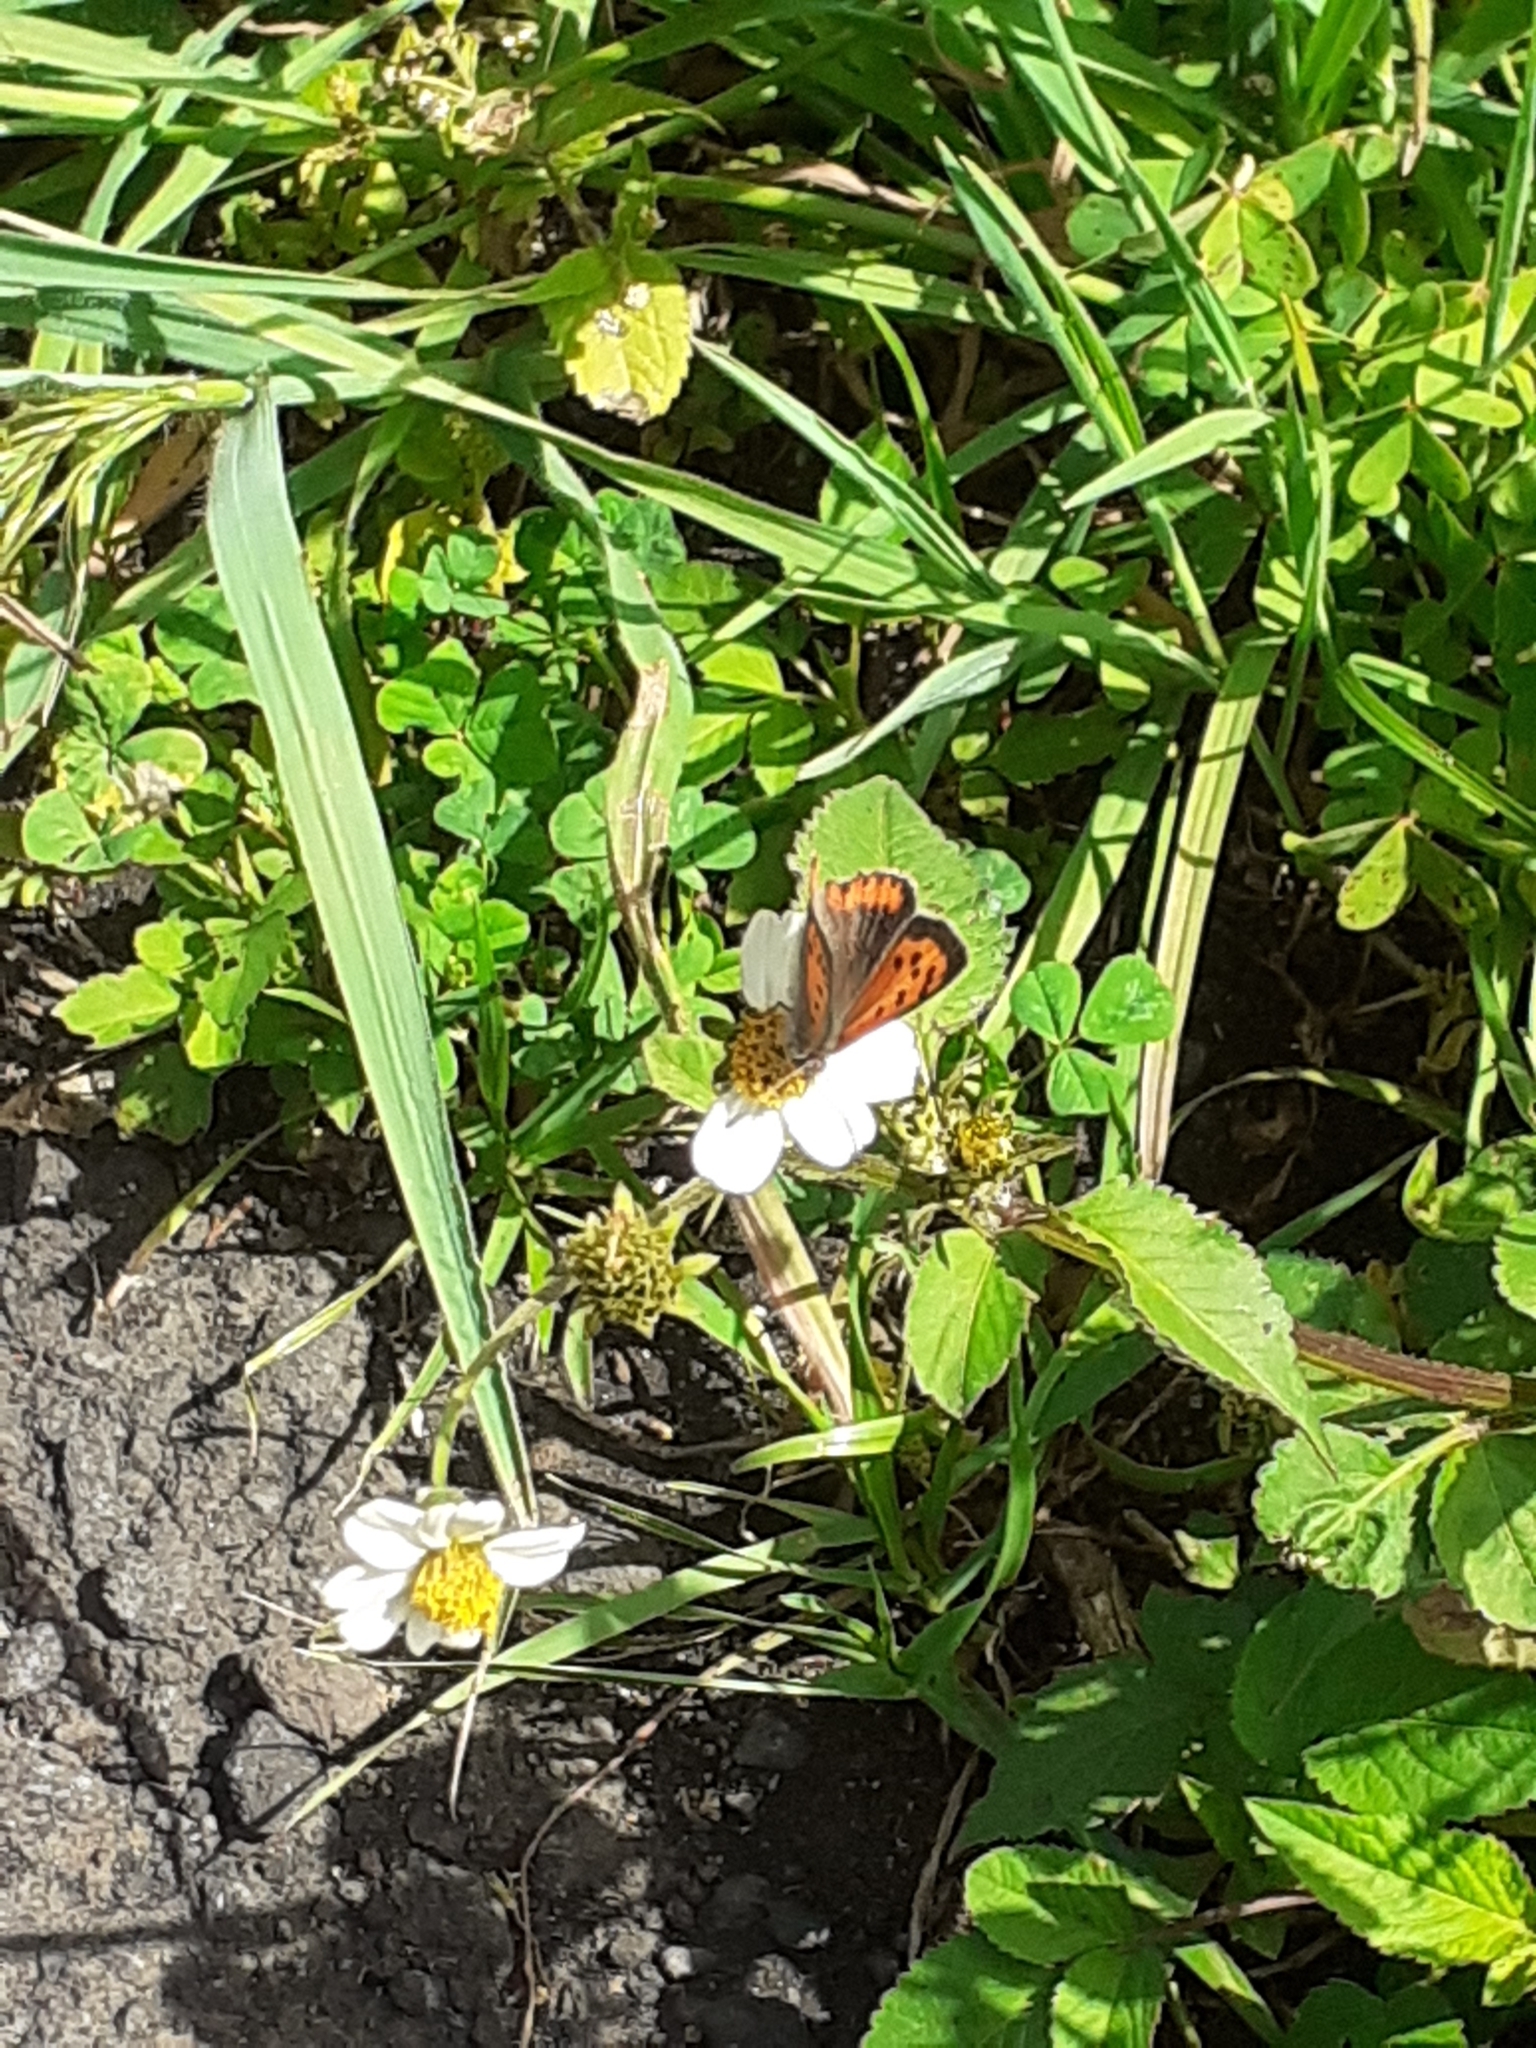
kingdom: Animalia
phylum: Arthropoda
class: Insecta
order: Lepidoptera
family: Lycaenidae
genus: Lycaena
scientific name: Lycaena phlaeas
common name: Small copper
